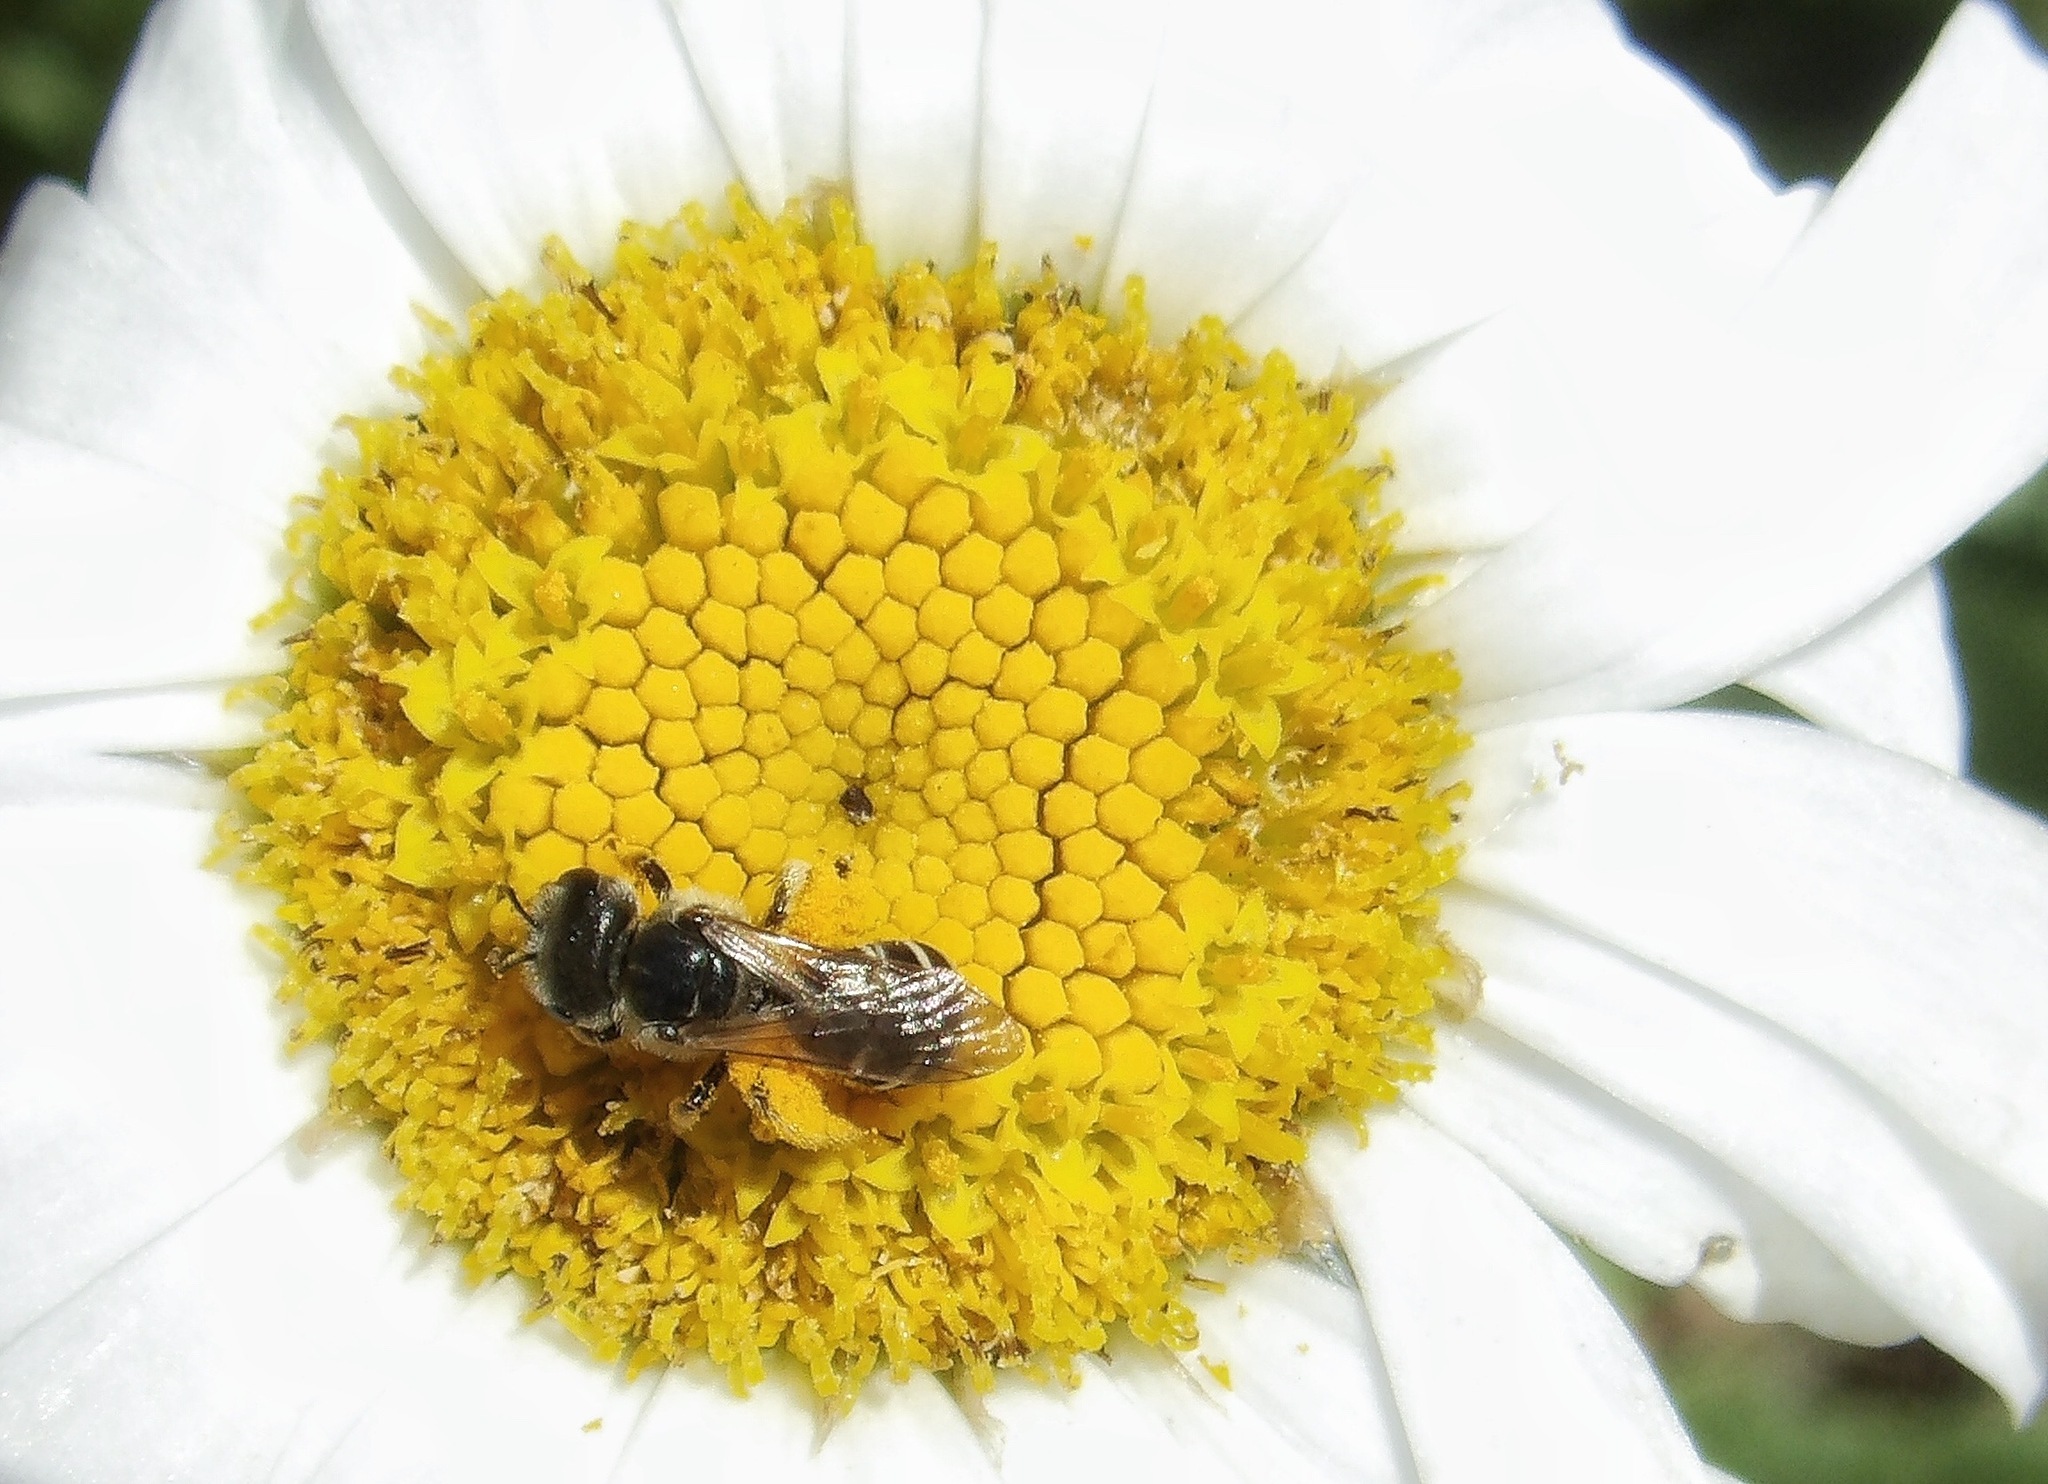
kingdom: Animalia
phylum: Arthropoda
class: Insecta
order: Hymenoptera
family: Halictidae
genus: Halictus
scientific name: Halictus ligatus
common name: Ligated furrow bee
